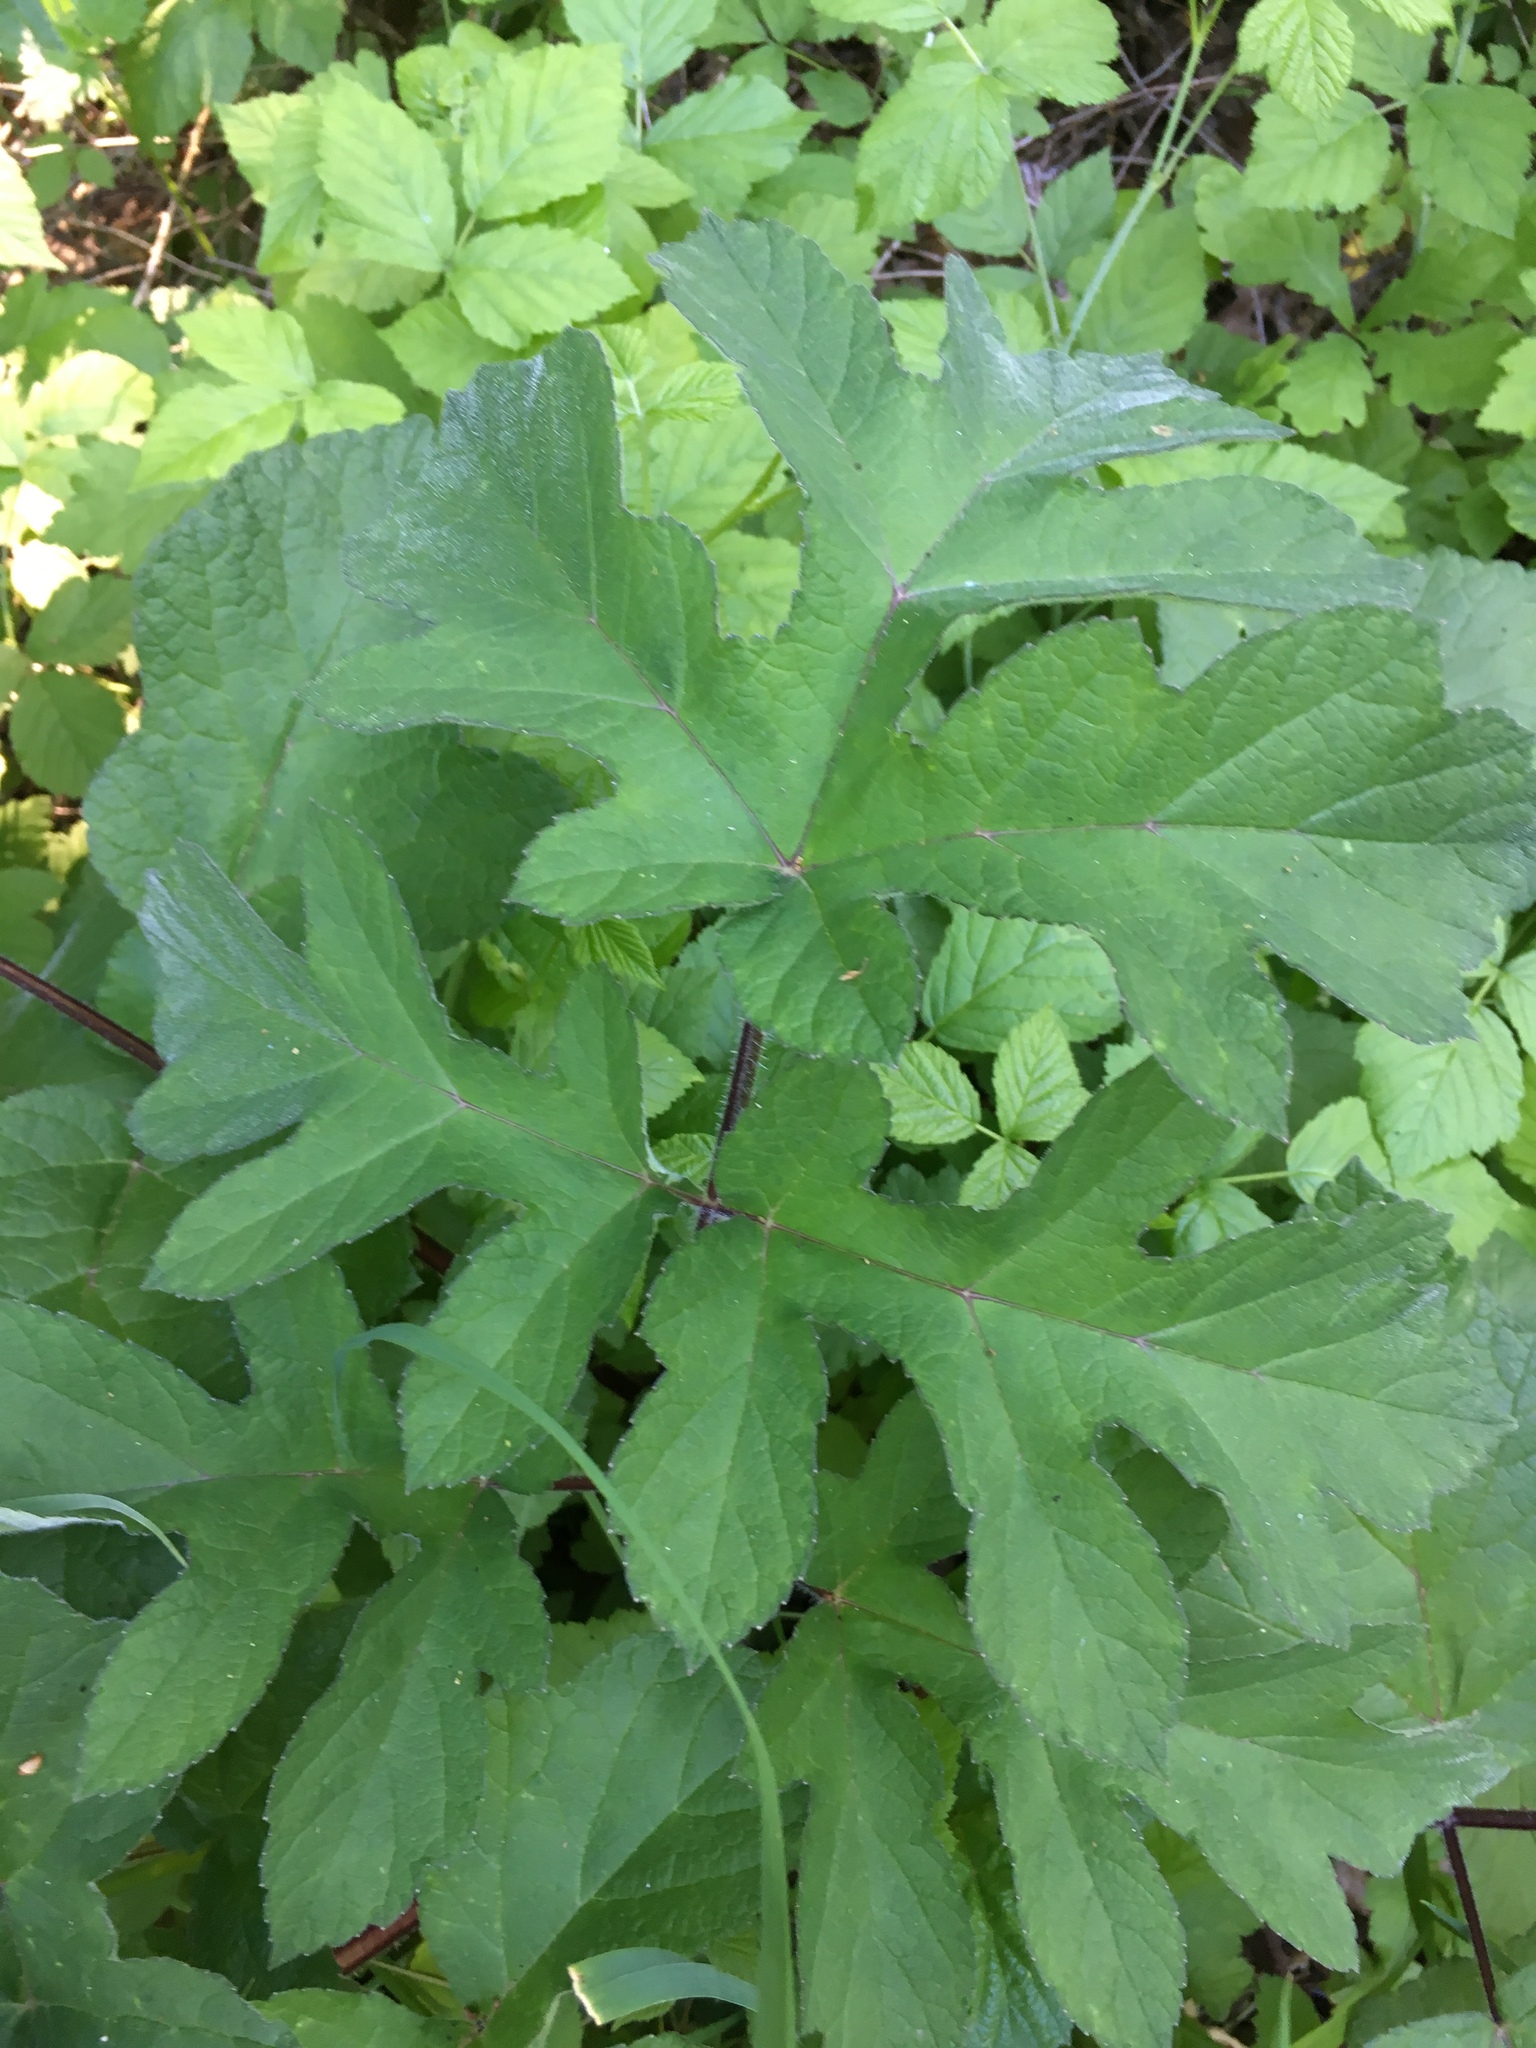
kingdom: Plantae
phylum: Tracheophyta
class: Magnoliopsida
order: Apiales
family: Apiaceae
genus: Heracleum
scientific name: Heracleum sphondylium
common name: Hogweed
